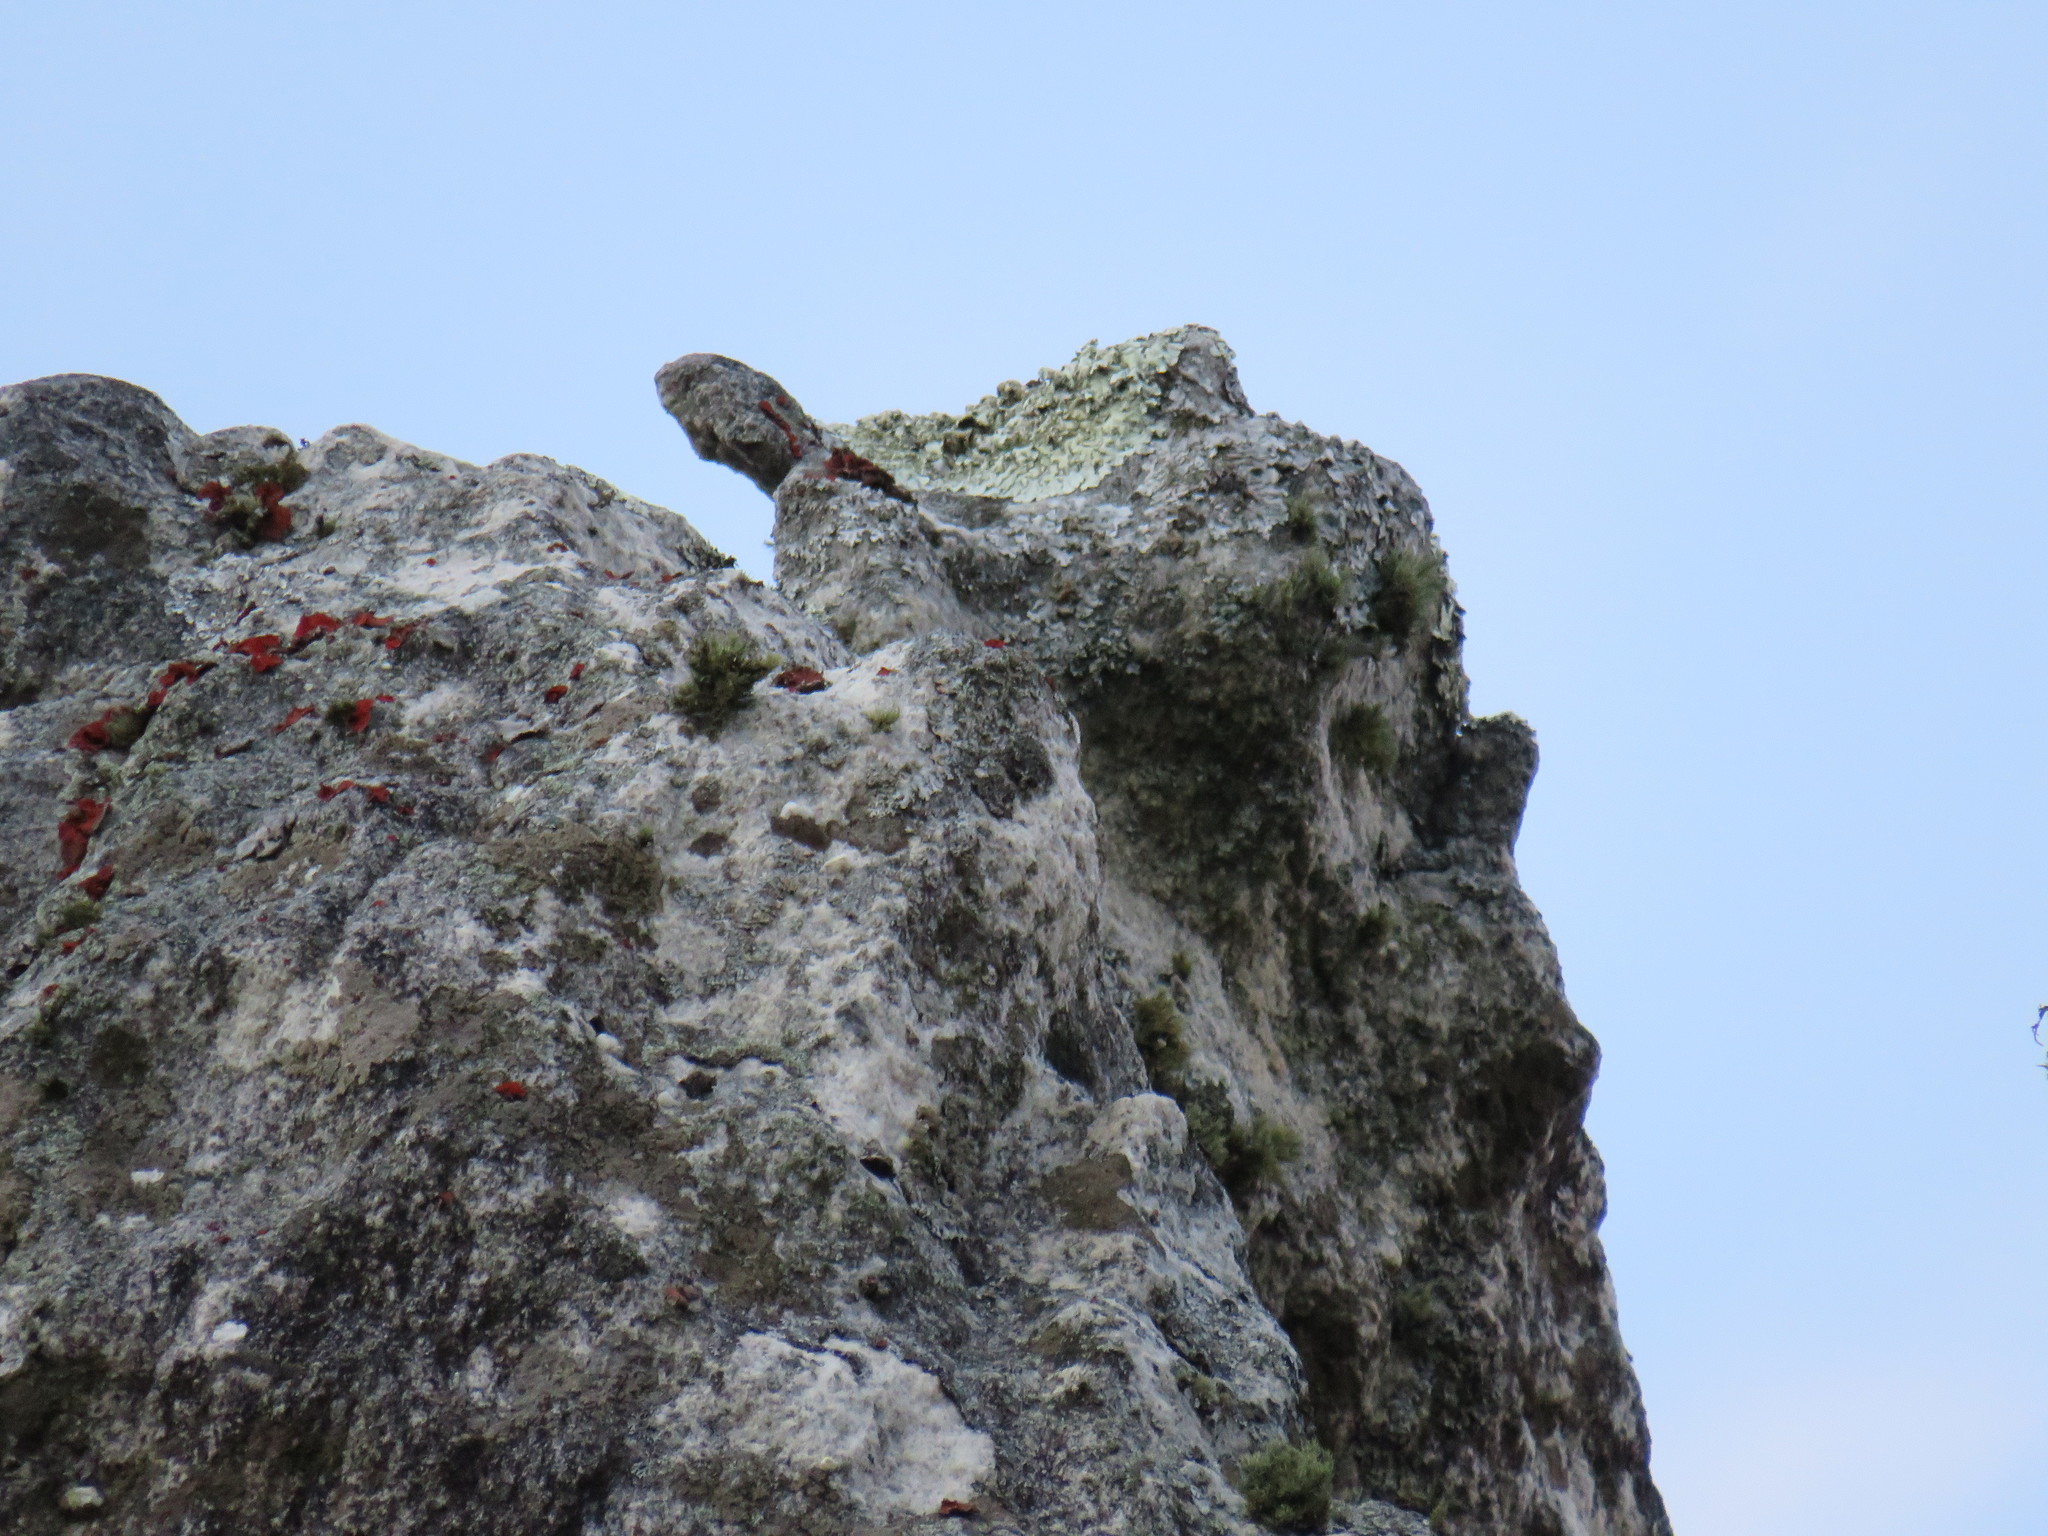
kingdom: Fungi
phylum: Ascomycota
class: Lecanoromycetes
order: Umbilicariales
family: Umbilicariaceae
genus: Lasallia
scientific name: Lasallia rubiginosa
